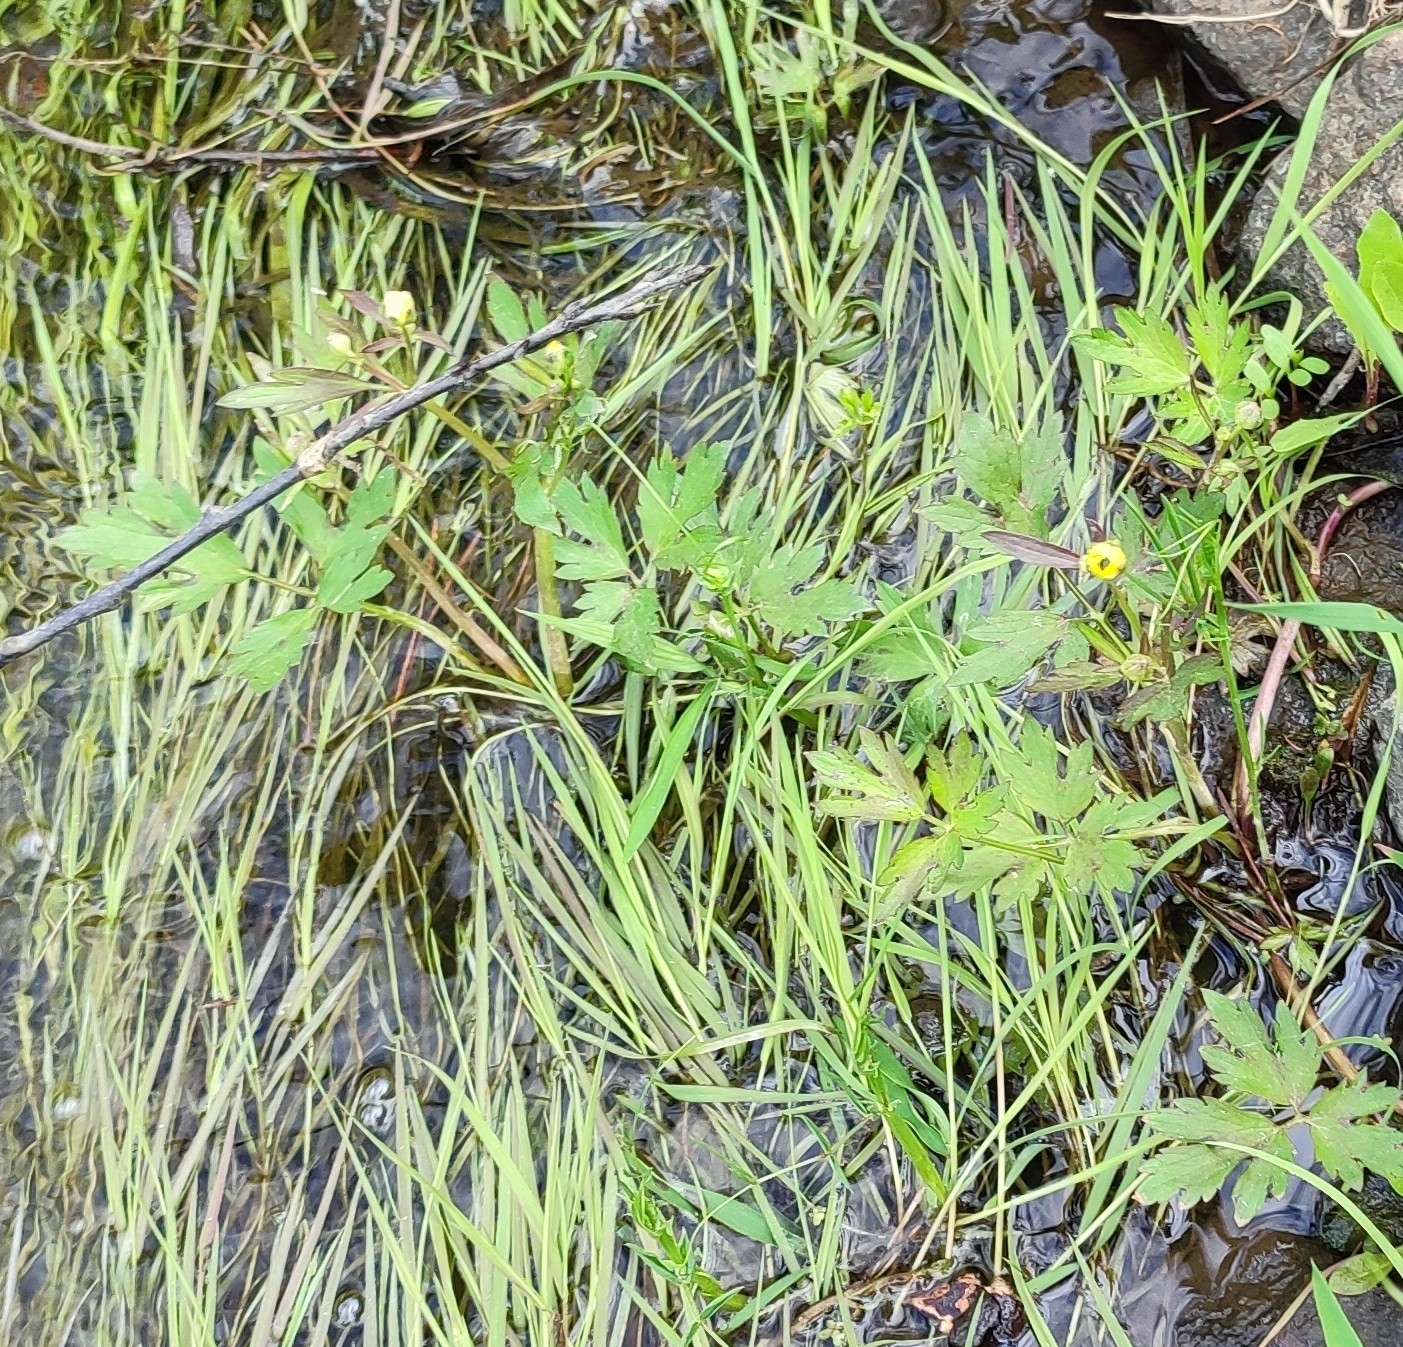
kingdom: Plantae
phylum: Tracheophyta
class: Magnoliopsida
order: Ranunculales
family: Ranunculaceae
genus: Ranunculus
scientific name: Ranunculus repens
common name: Creeping buttercup
